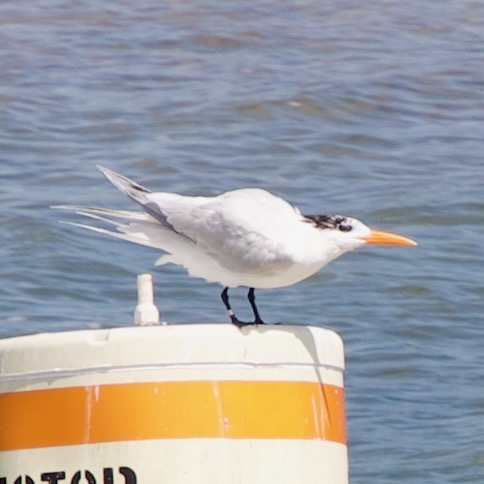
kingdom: Animalia
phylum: Chordata
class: Aves
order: Charadriiformes
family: Laridae
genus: Thalasseus
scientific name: Thalasseus maximus
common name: Royal tern
